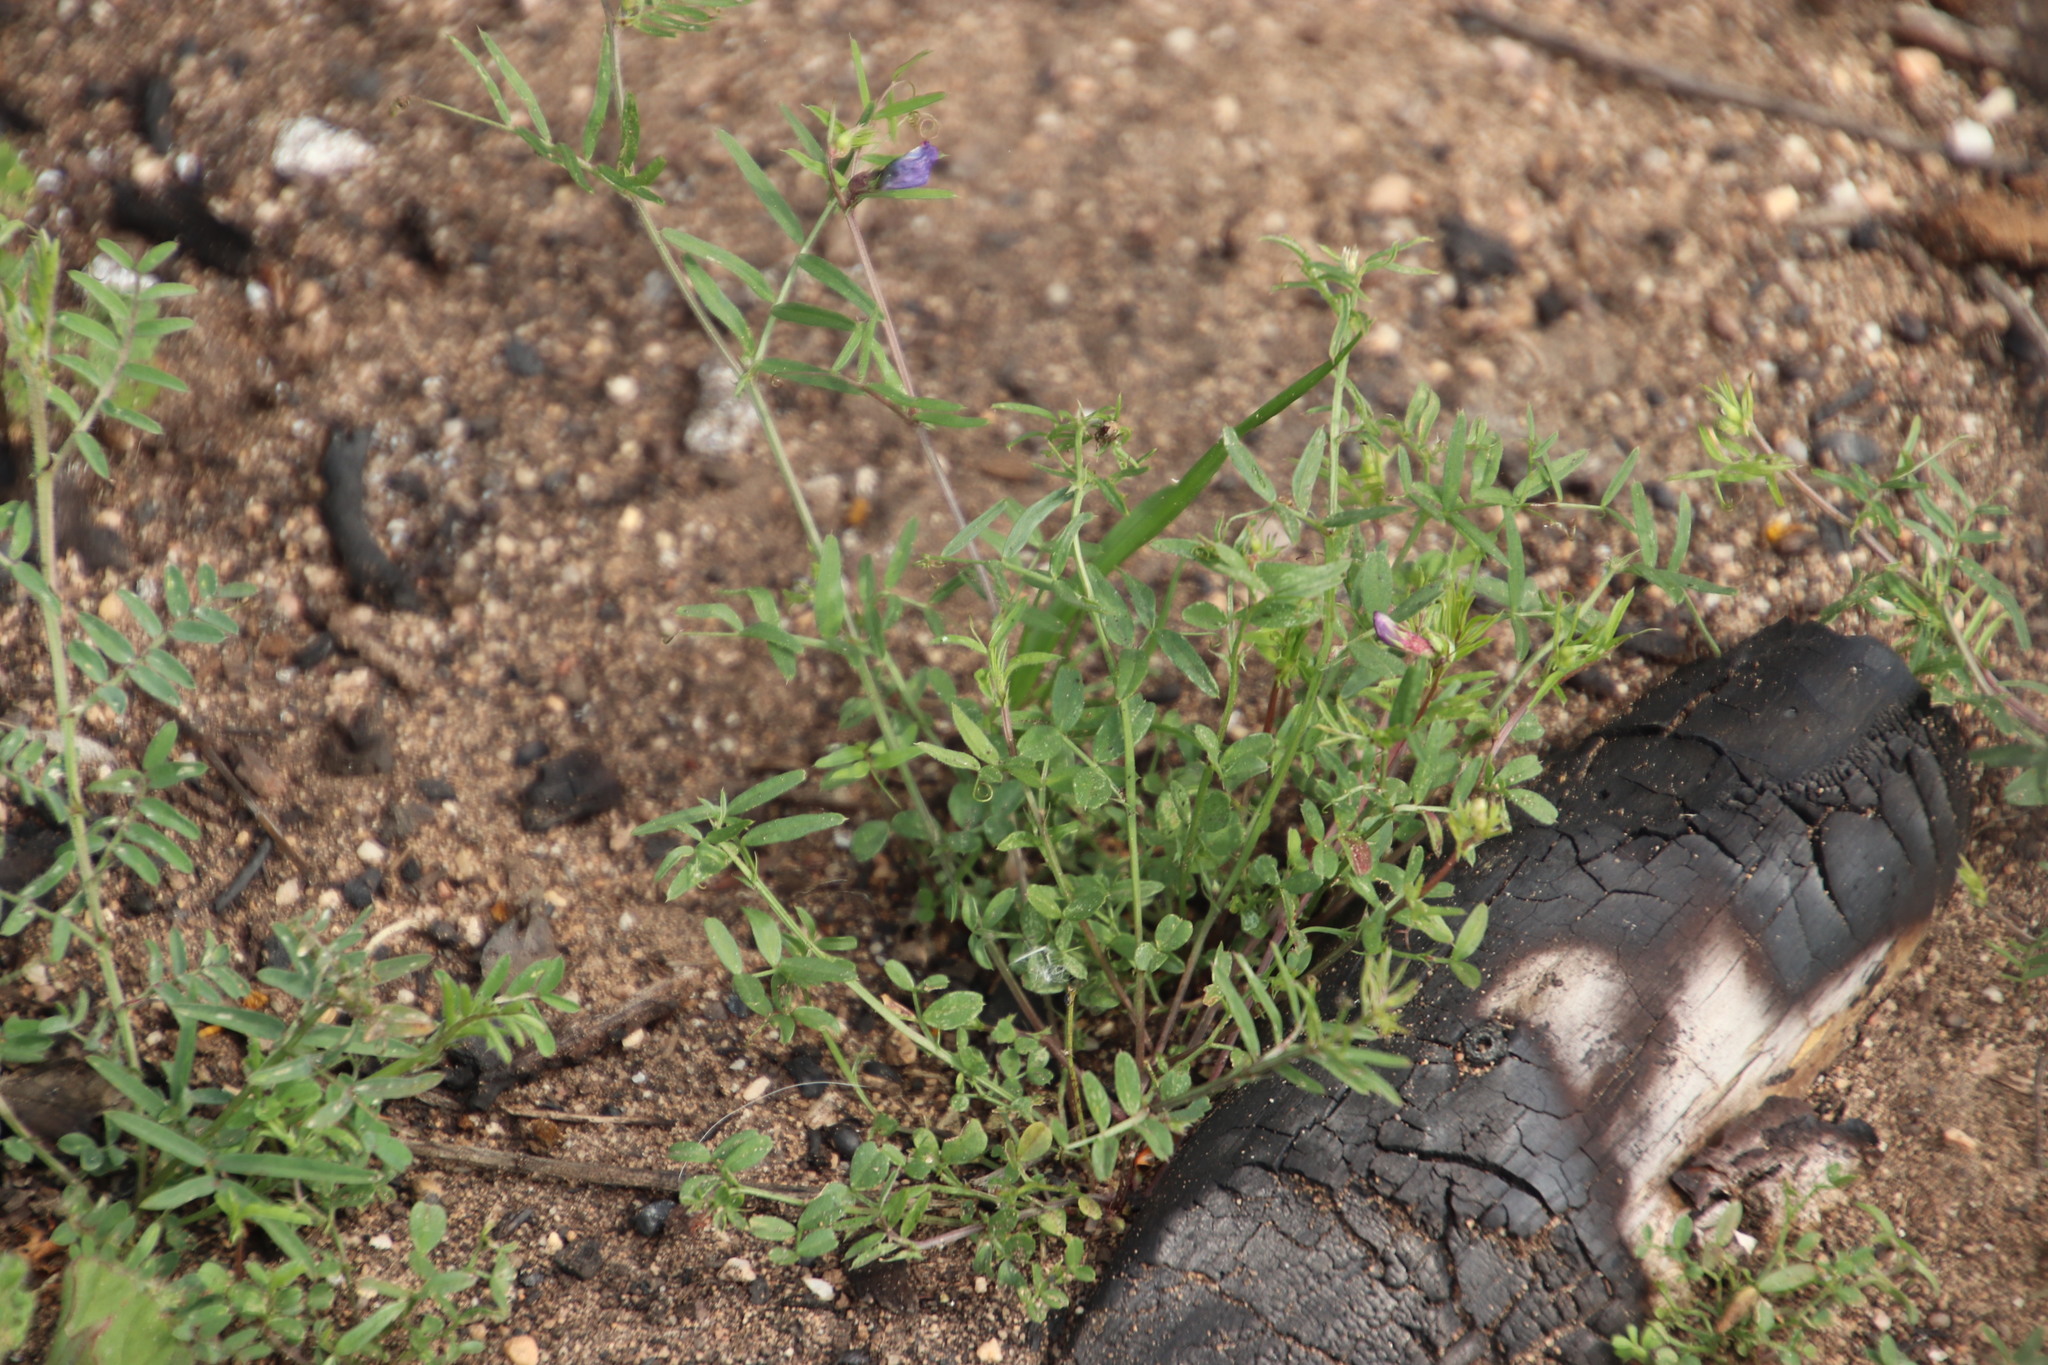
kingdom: Plantae
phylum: Tracheophyta
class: Magnoliopsida
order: Fabales
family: Fabaceae
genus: Vicia
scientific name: Vicia sativa
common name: Garden vetch
